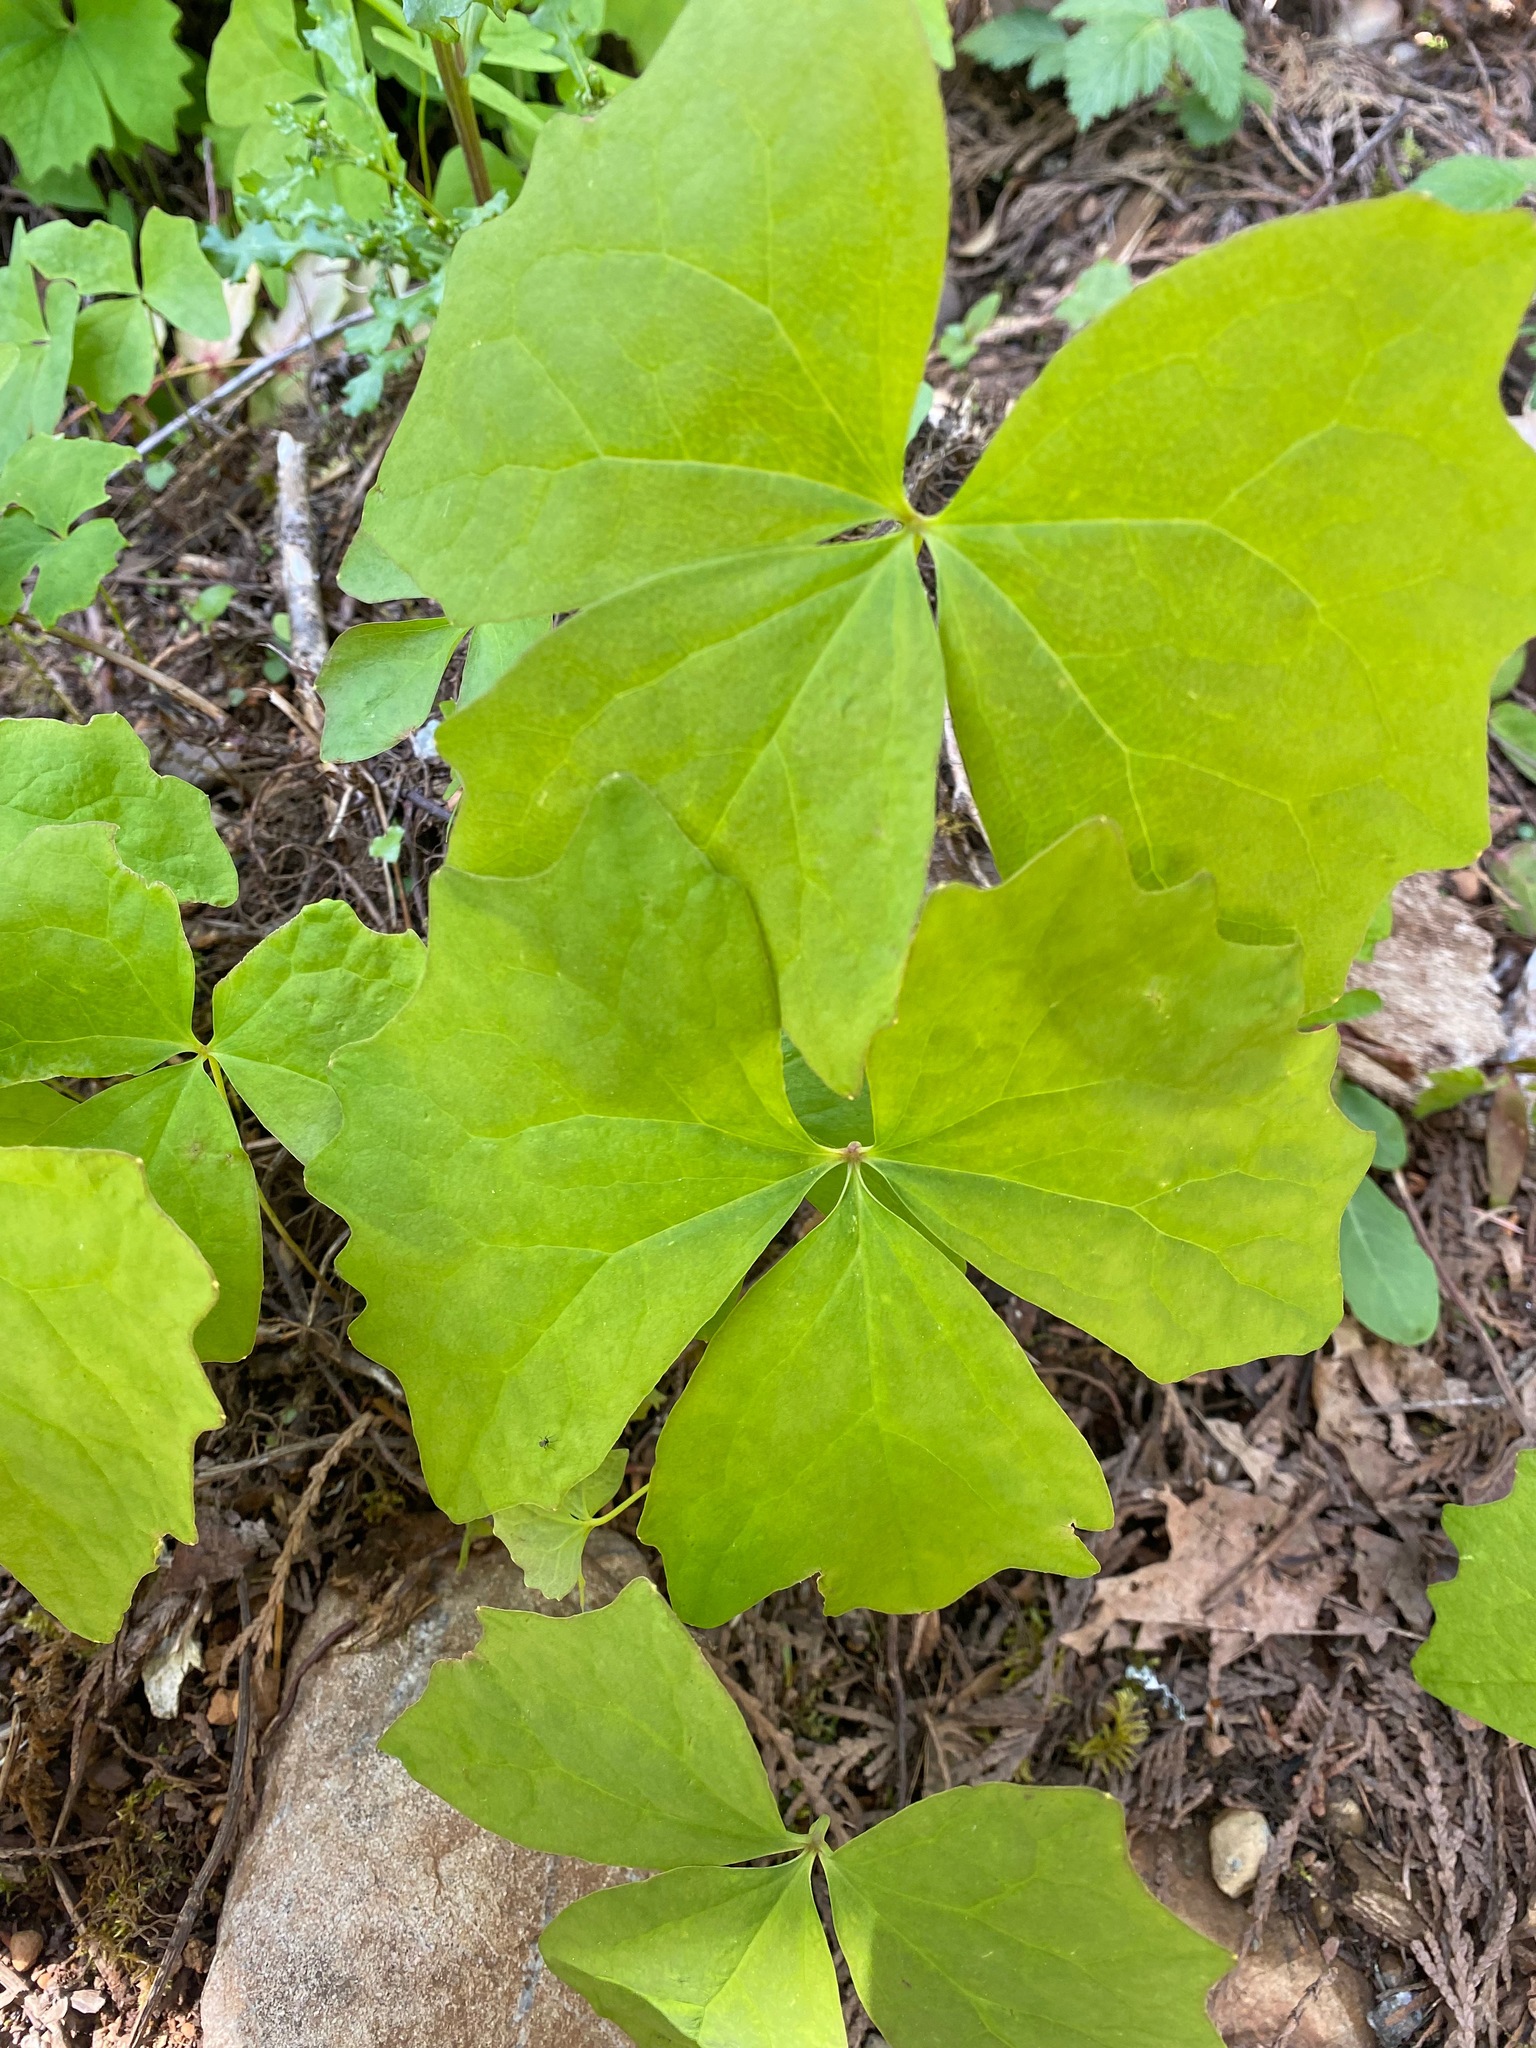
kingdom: Plantae
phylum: Tracheophyta
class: Magnoliopsida
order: Ranunculales
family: Berberidaceae
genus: Achlys
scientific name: Achlys triphylla
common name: Vanilla-leaf
